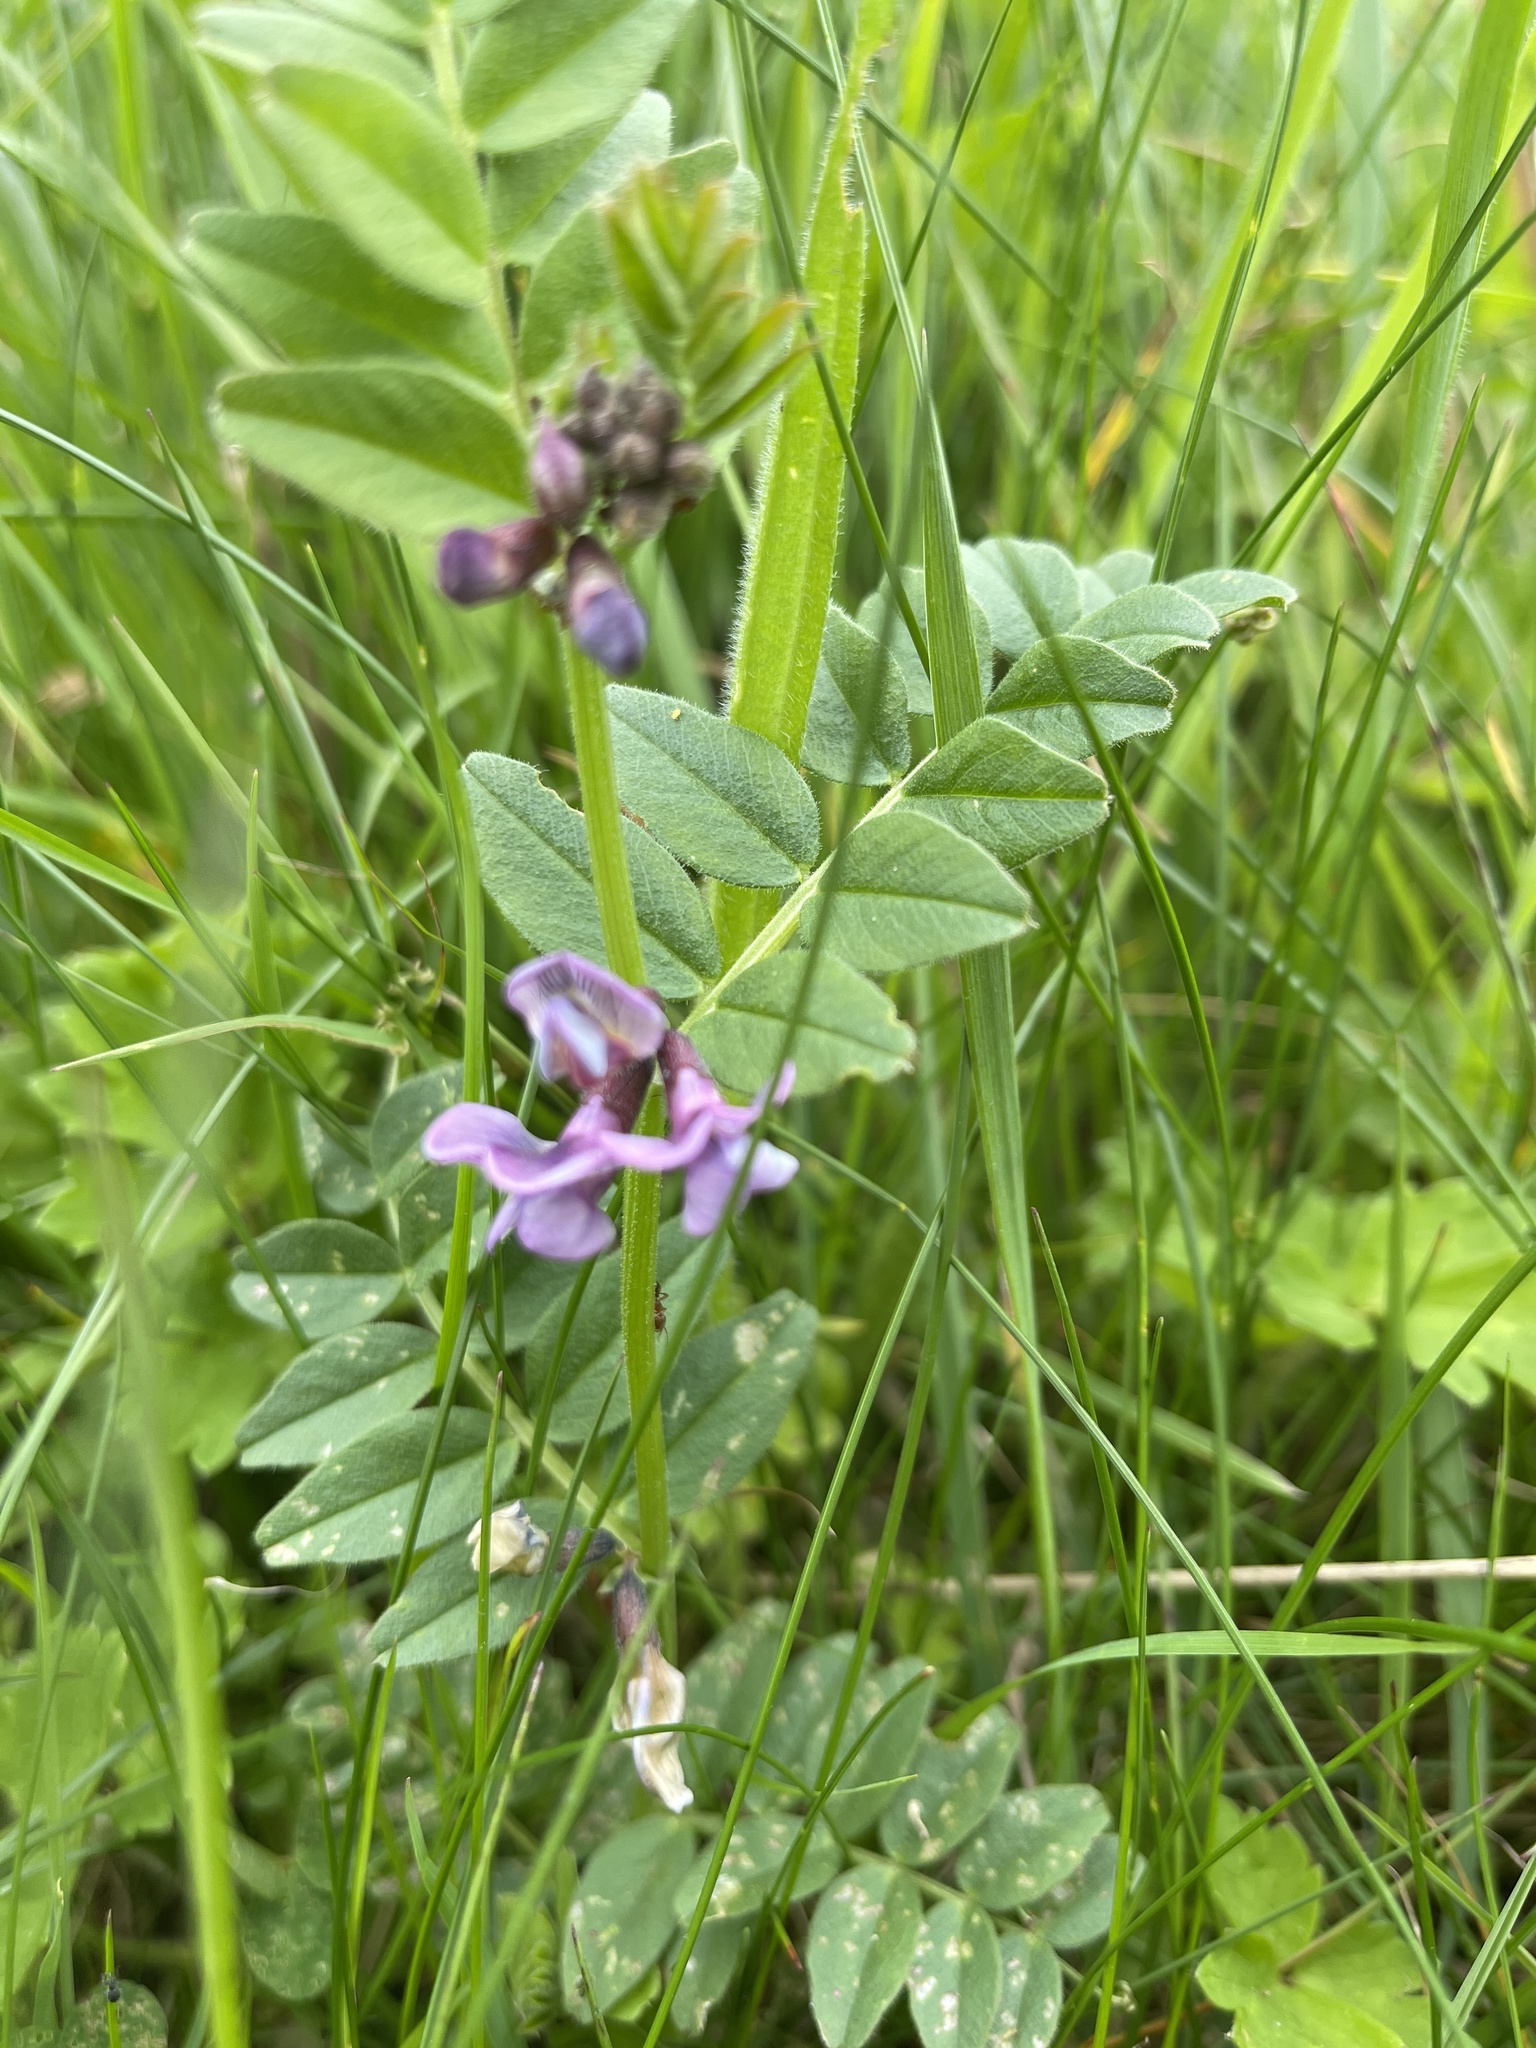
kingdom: Plantae
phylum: Tracheophyta
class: Magnoliopsida
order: Fabales
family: Fabaceae
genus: Vicia
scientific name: Vicia sepium
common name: Bush vetch
